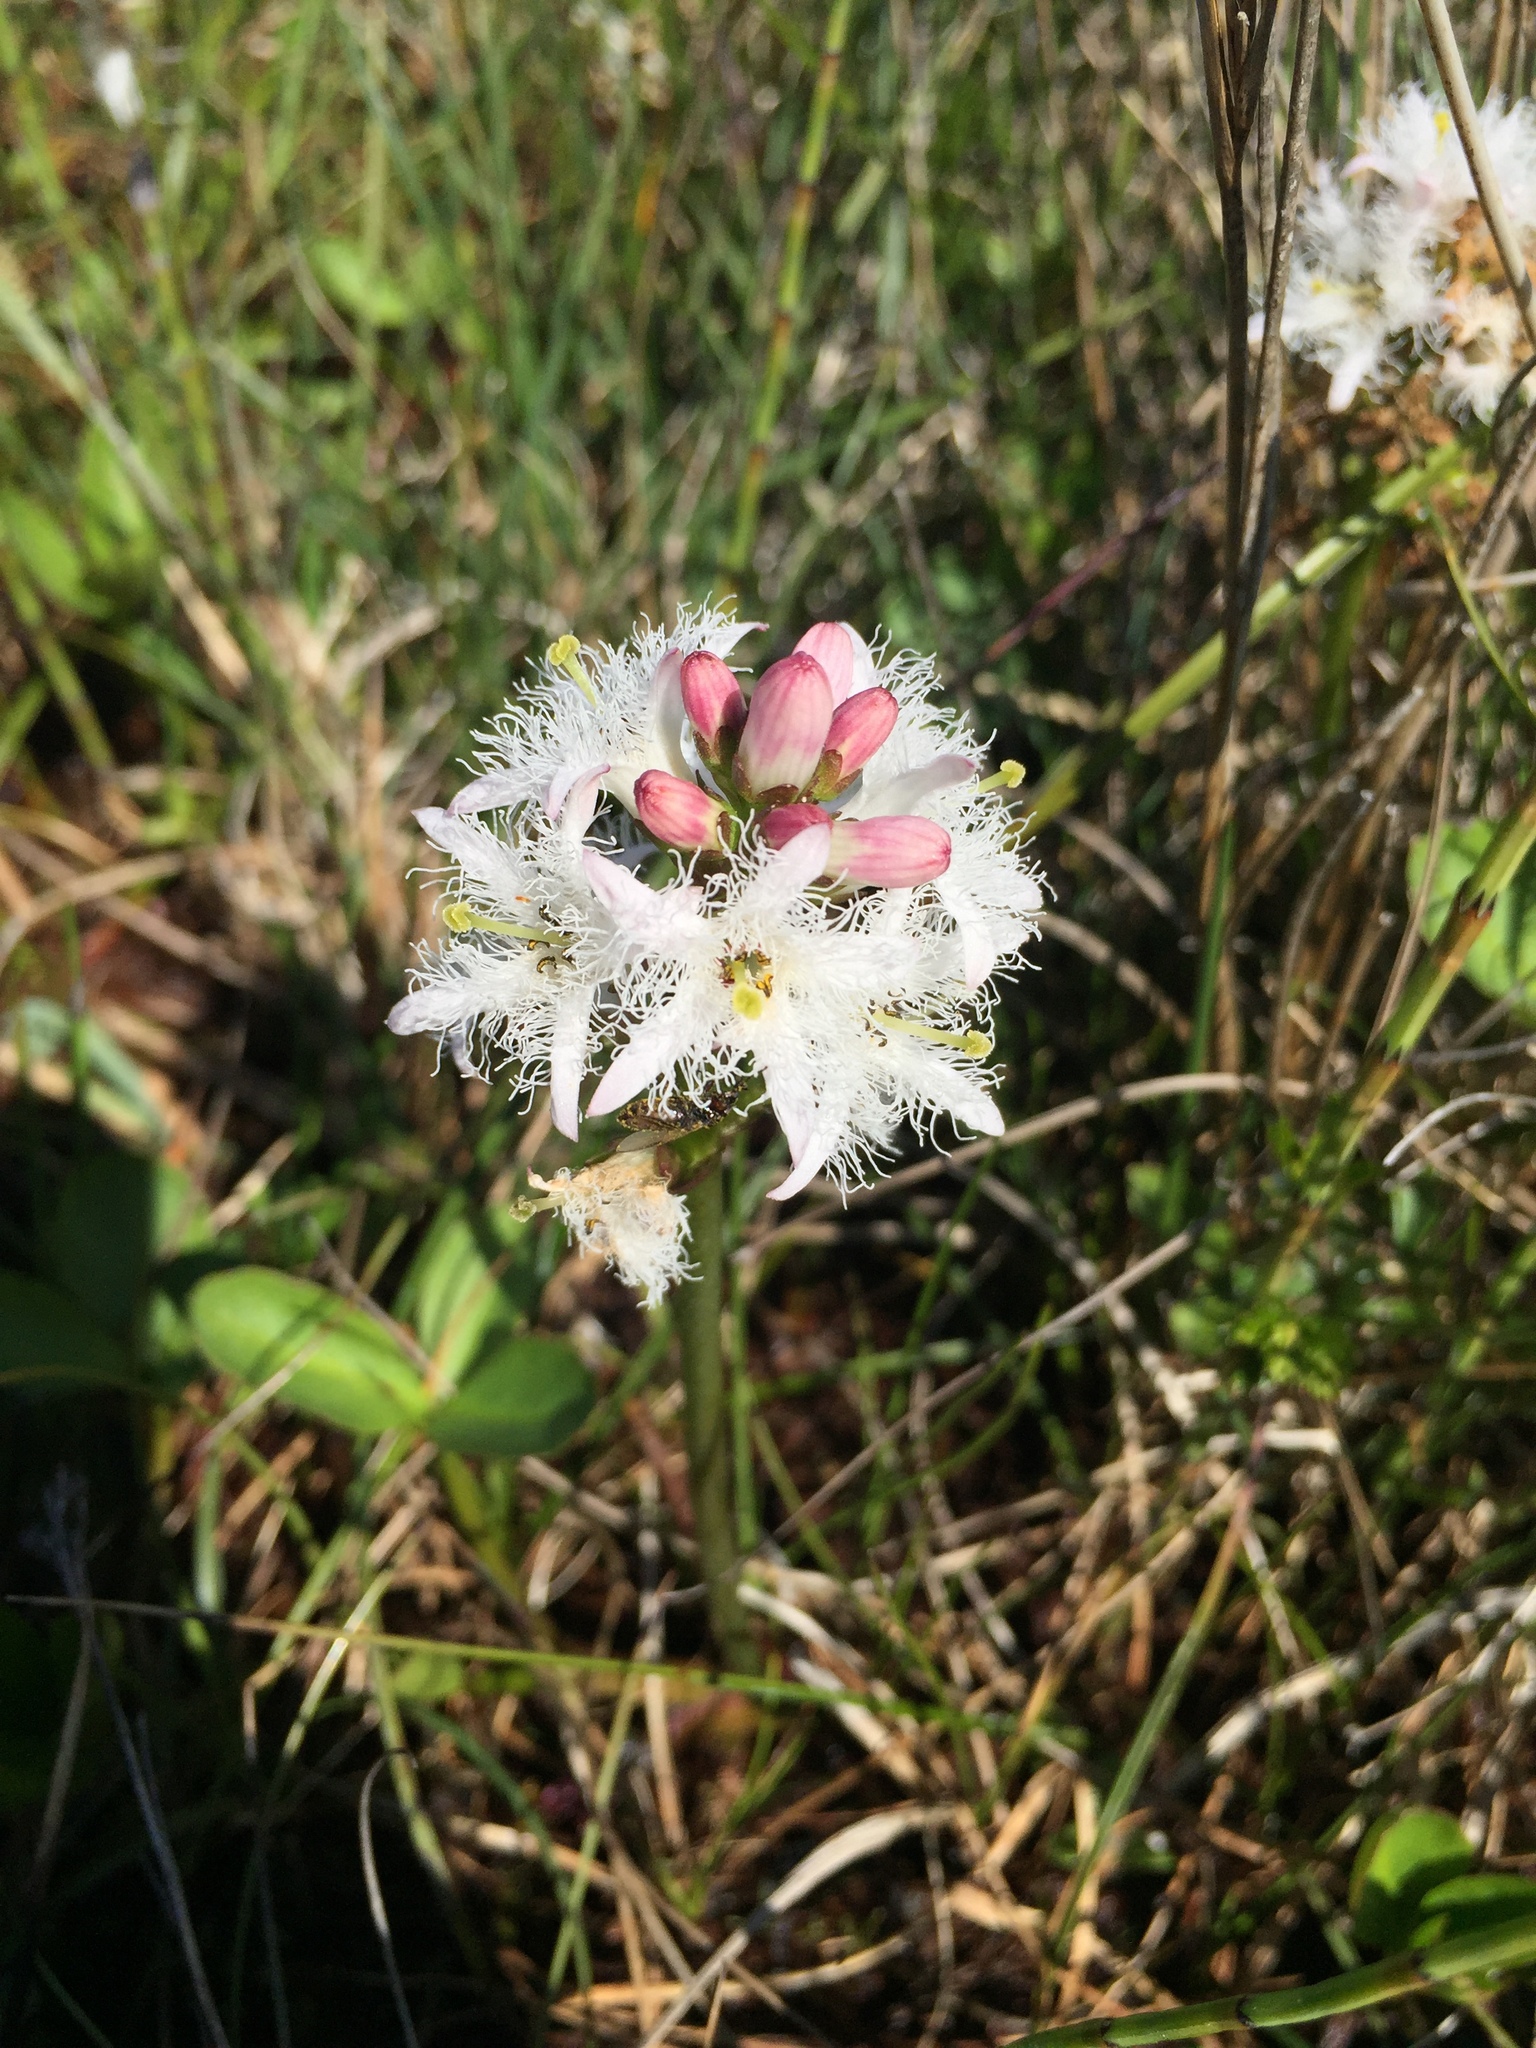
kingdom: Plantae
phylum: Tracheophyta
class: Magnoliopsida
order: Asterales
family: Menyanthaceae
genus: Menyanthes
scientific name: Menyanthes trifoliata
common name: Bogbean
